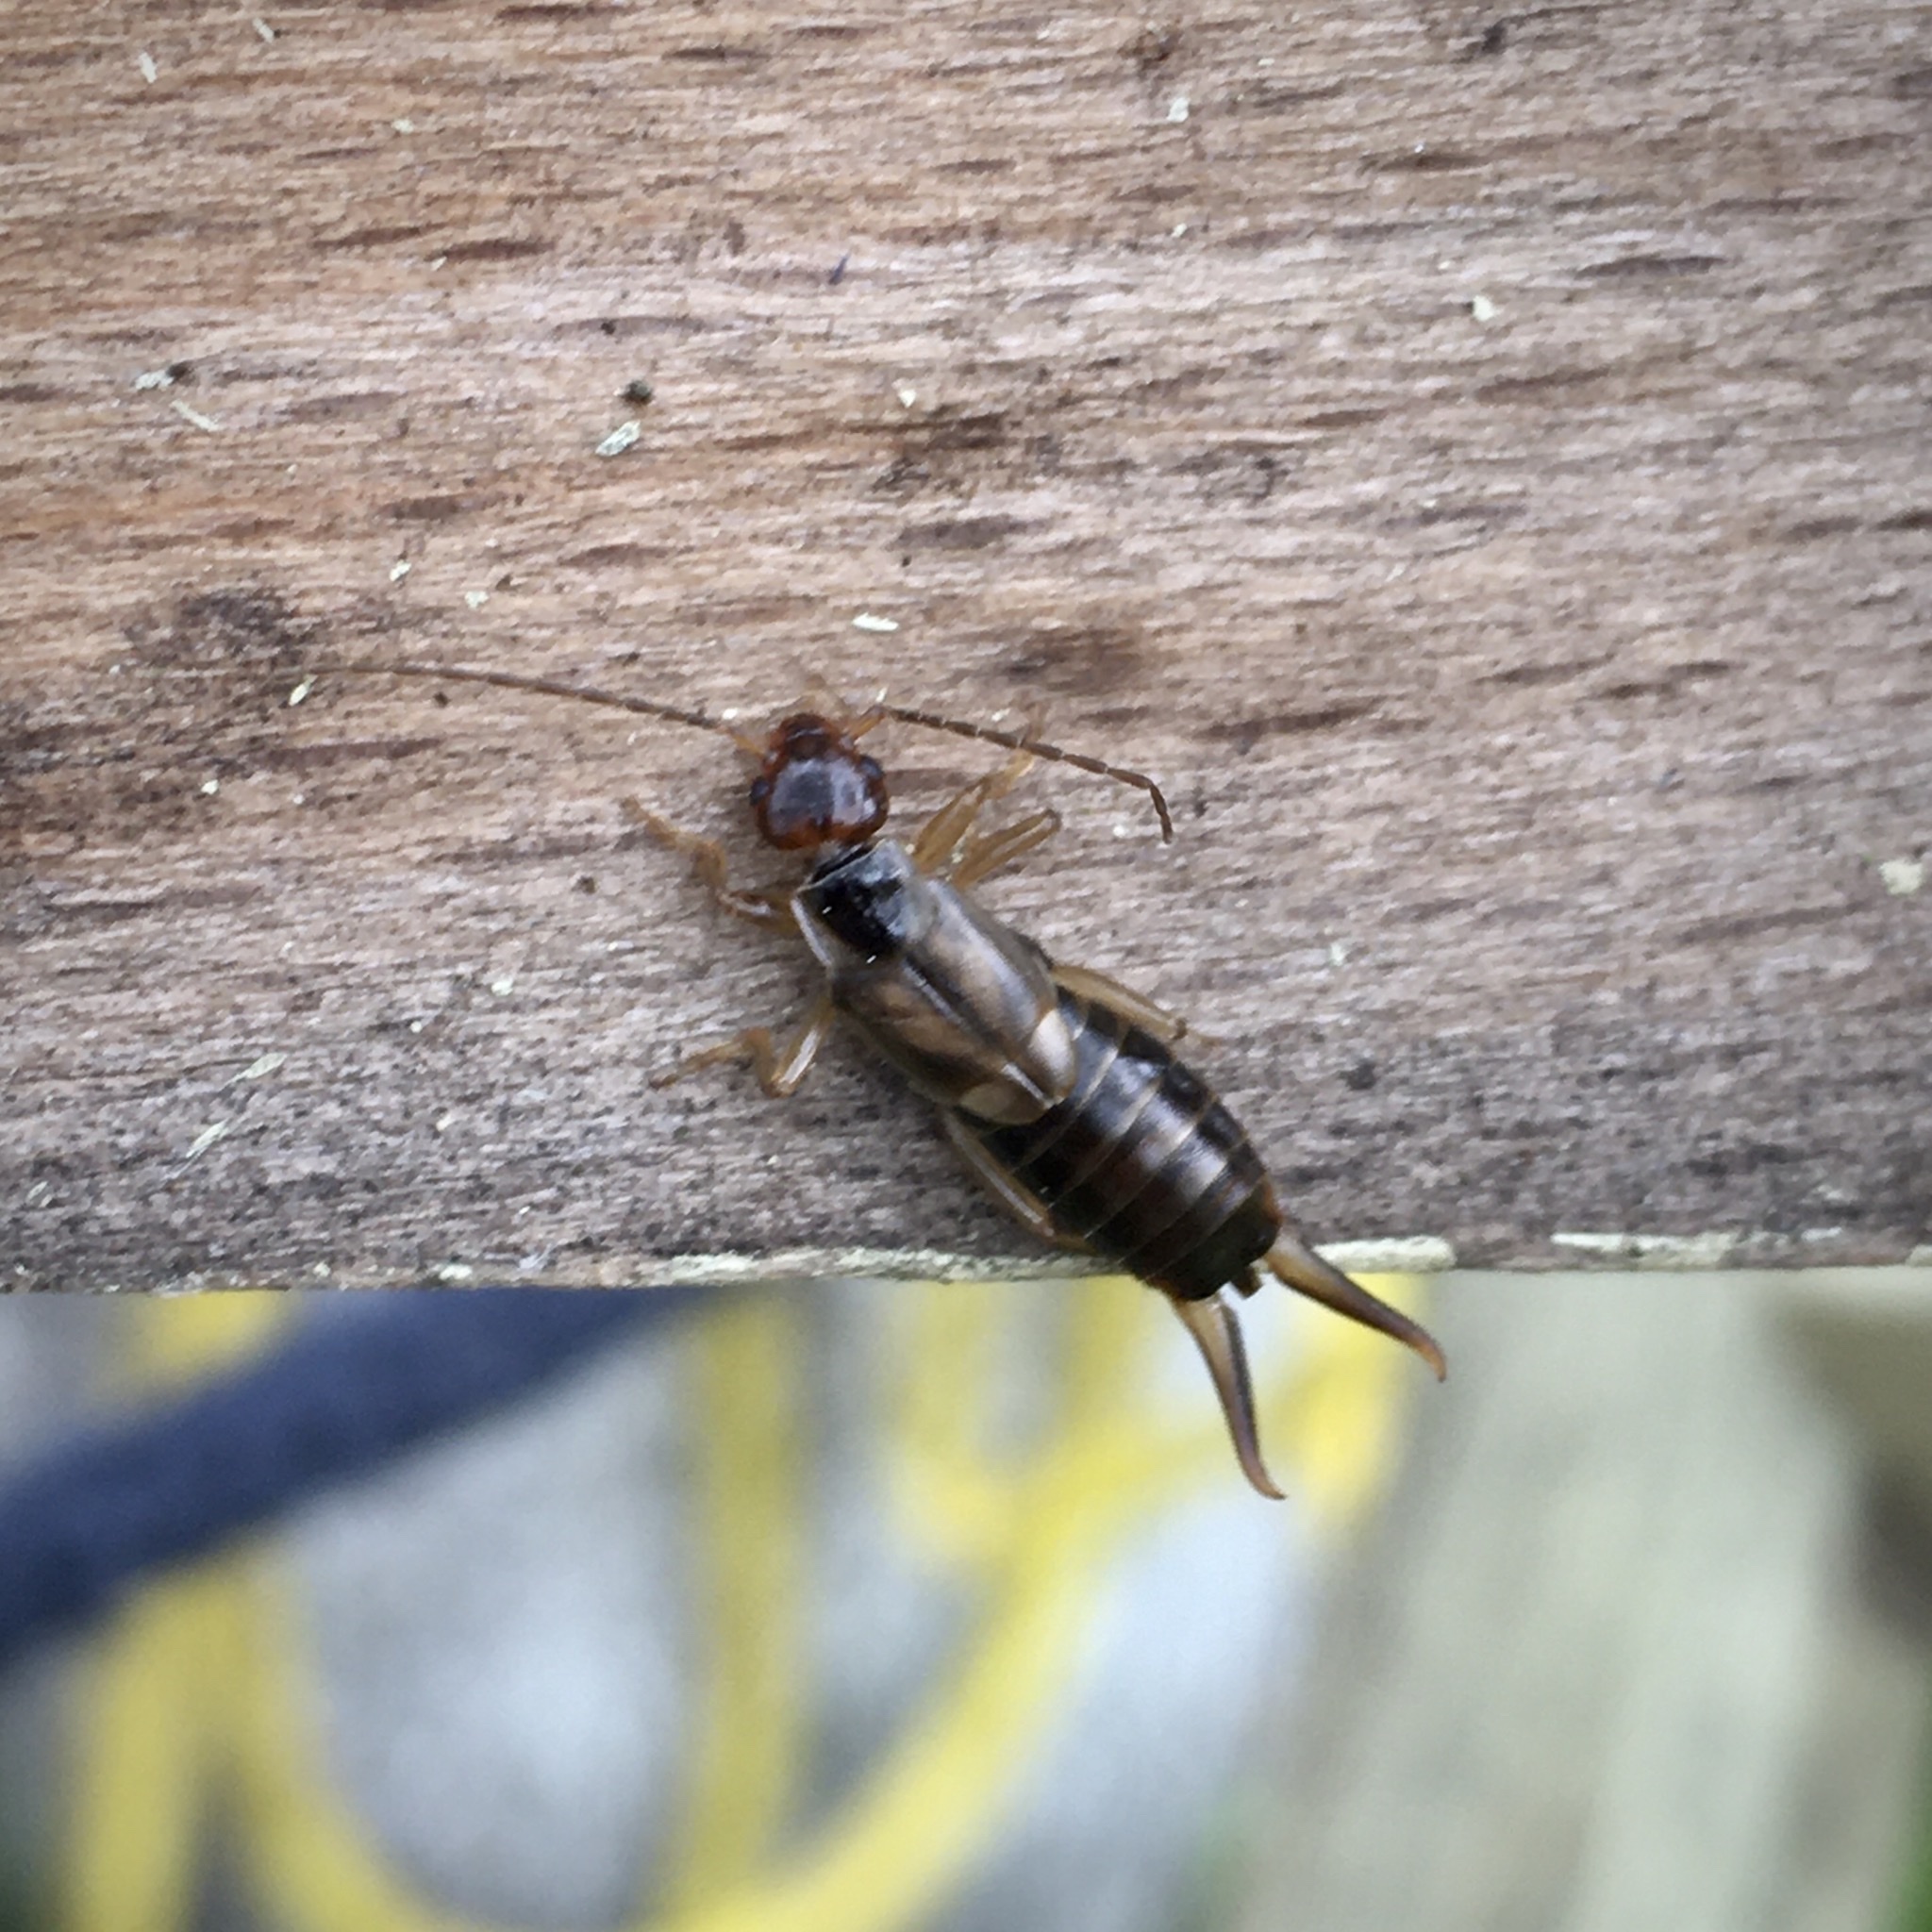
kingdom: Animalia
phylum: Arthropoda
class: Insecta
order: Dermaptera
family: Forficulidae
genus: Forficula
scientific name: Forficula
